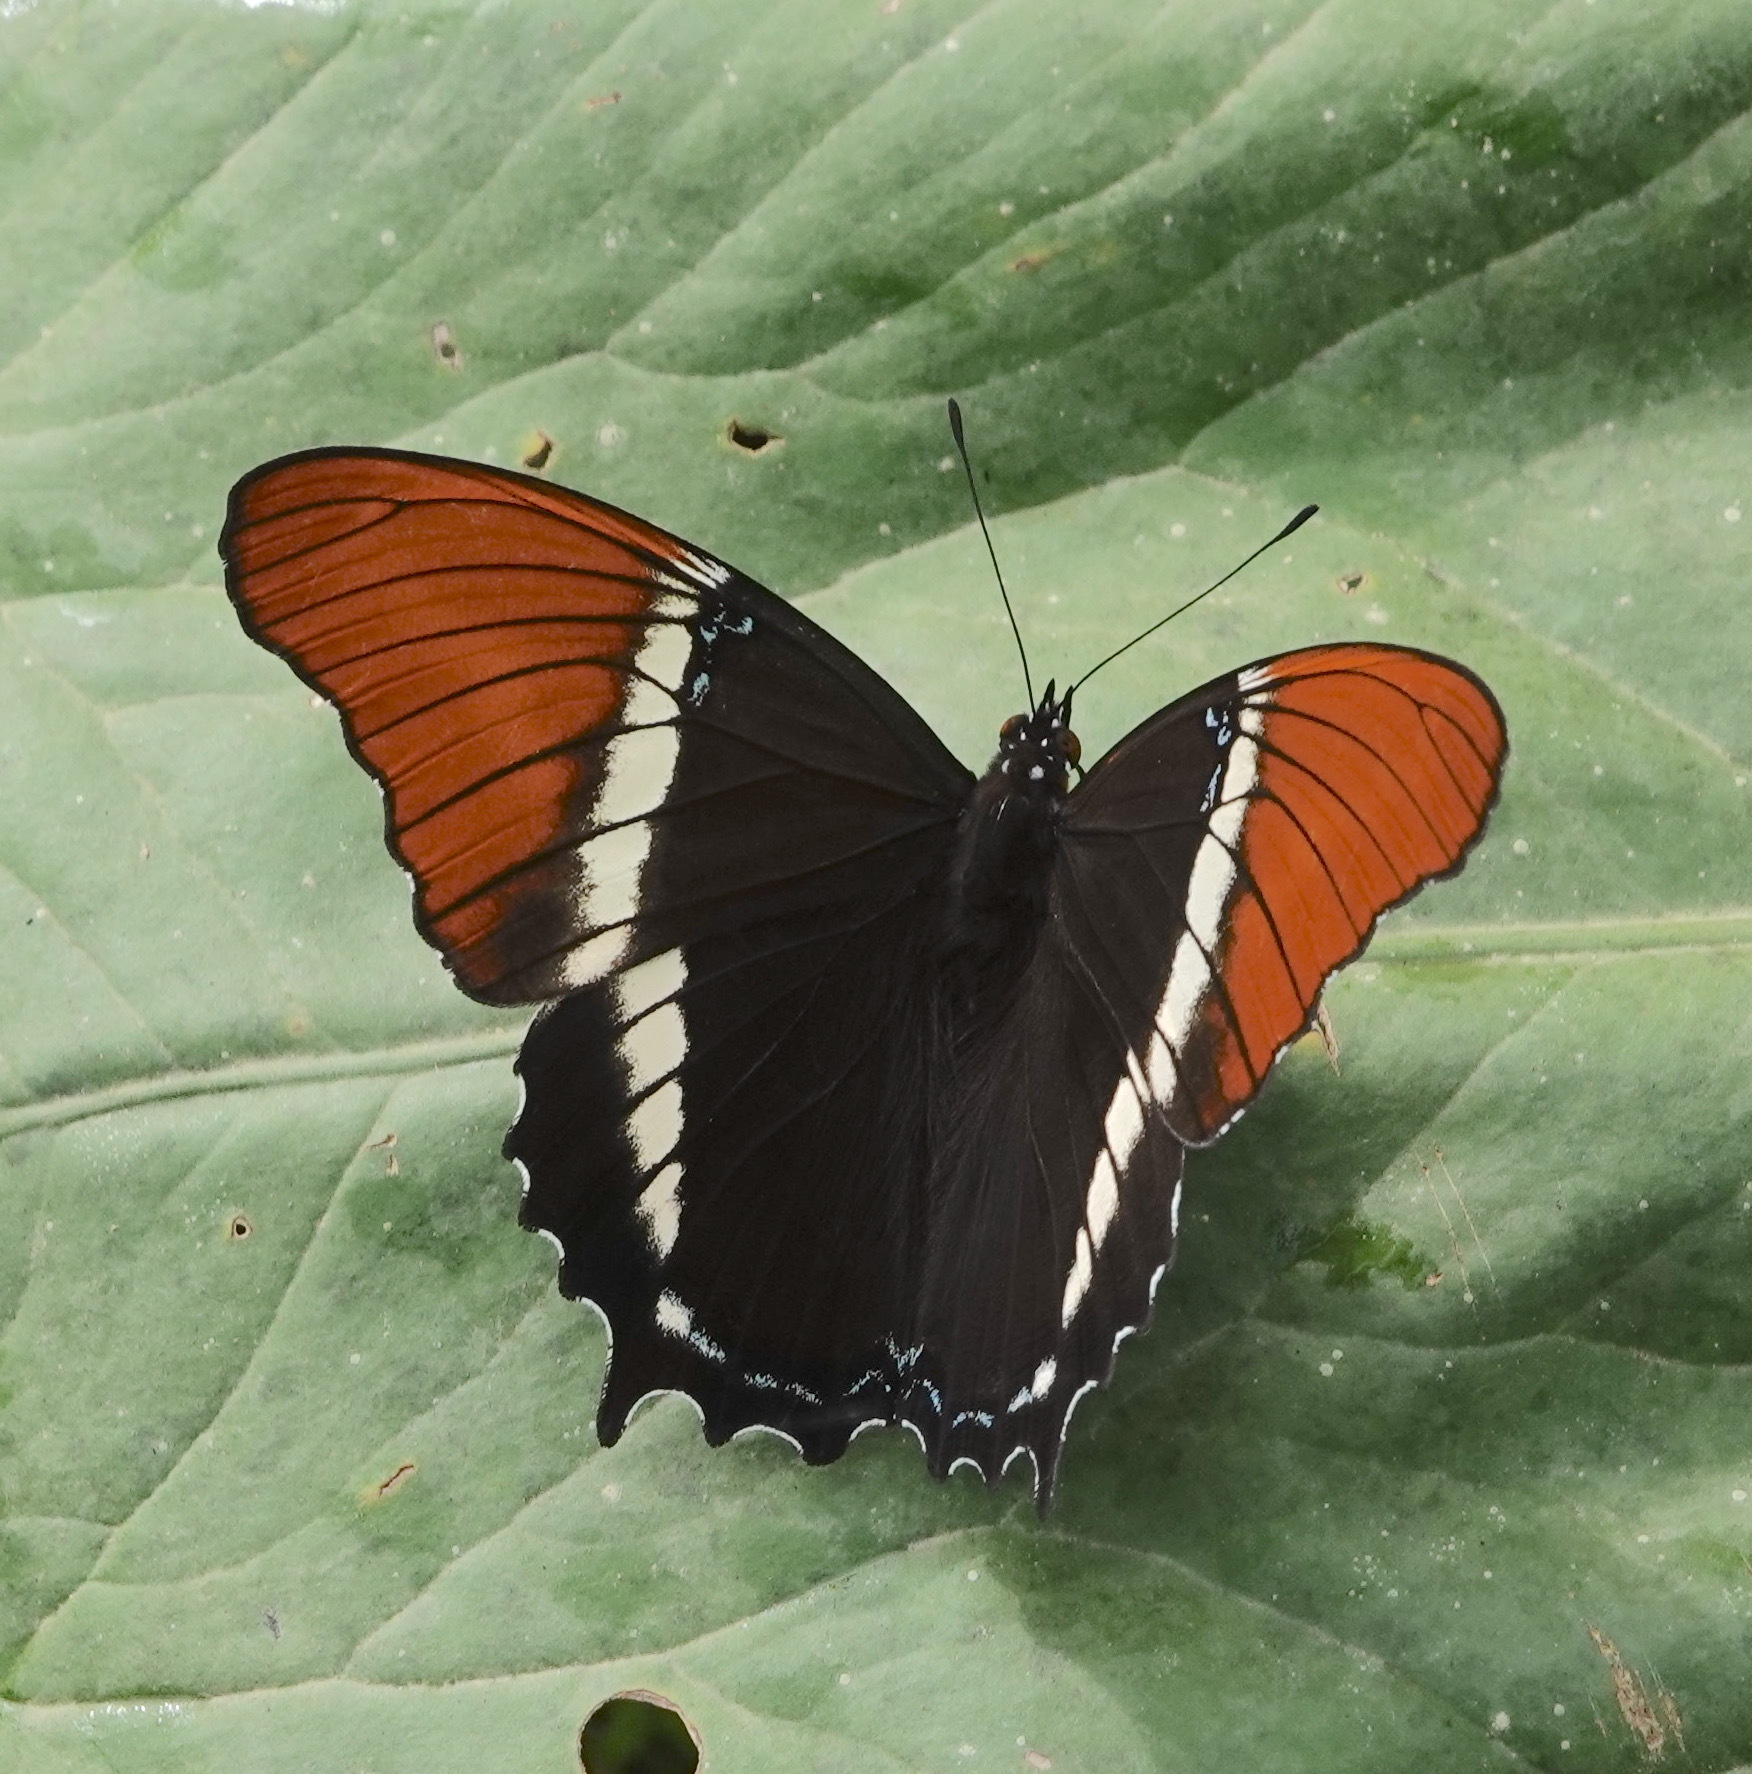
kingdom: Animalia
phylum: Arthropoda
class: Insecta
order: Lepidoptera
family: Nymphalidae
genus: Siproeta
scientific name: Siproeta epaphus
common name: Rusty-tipped page
